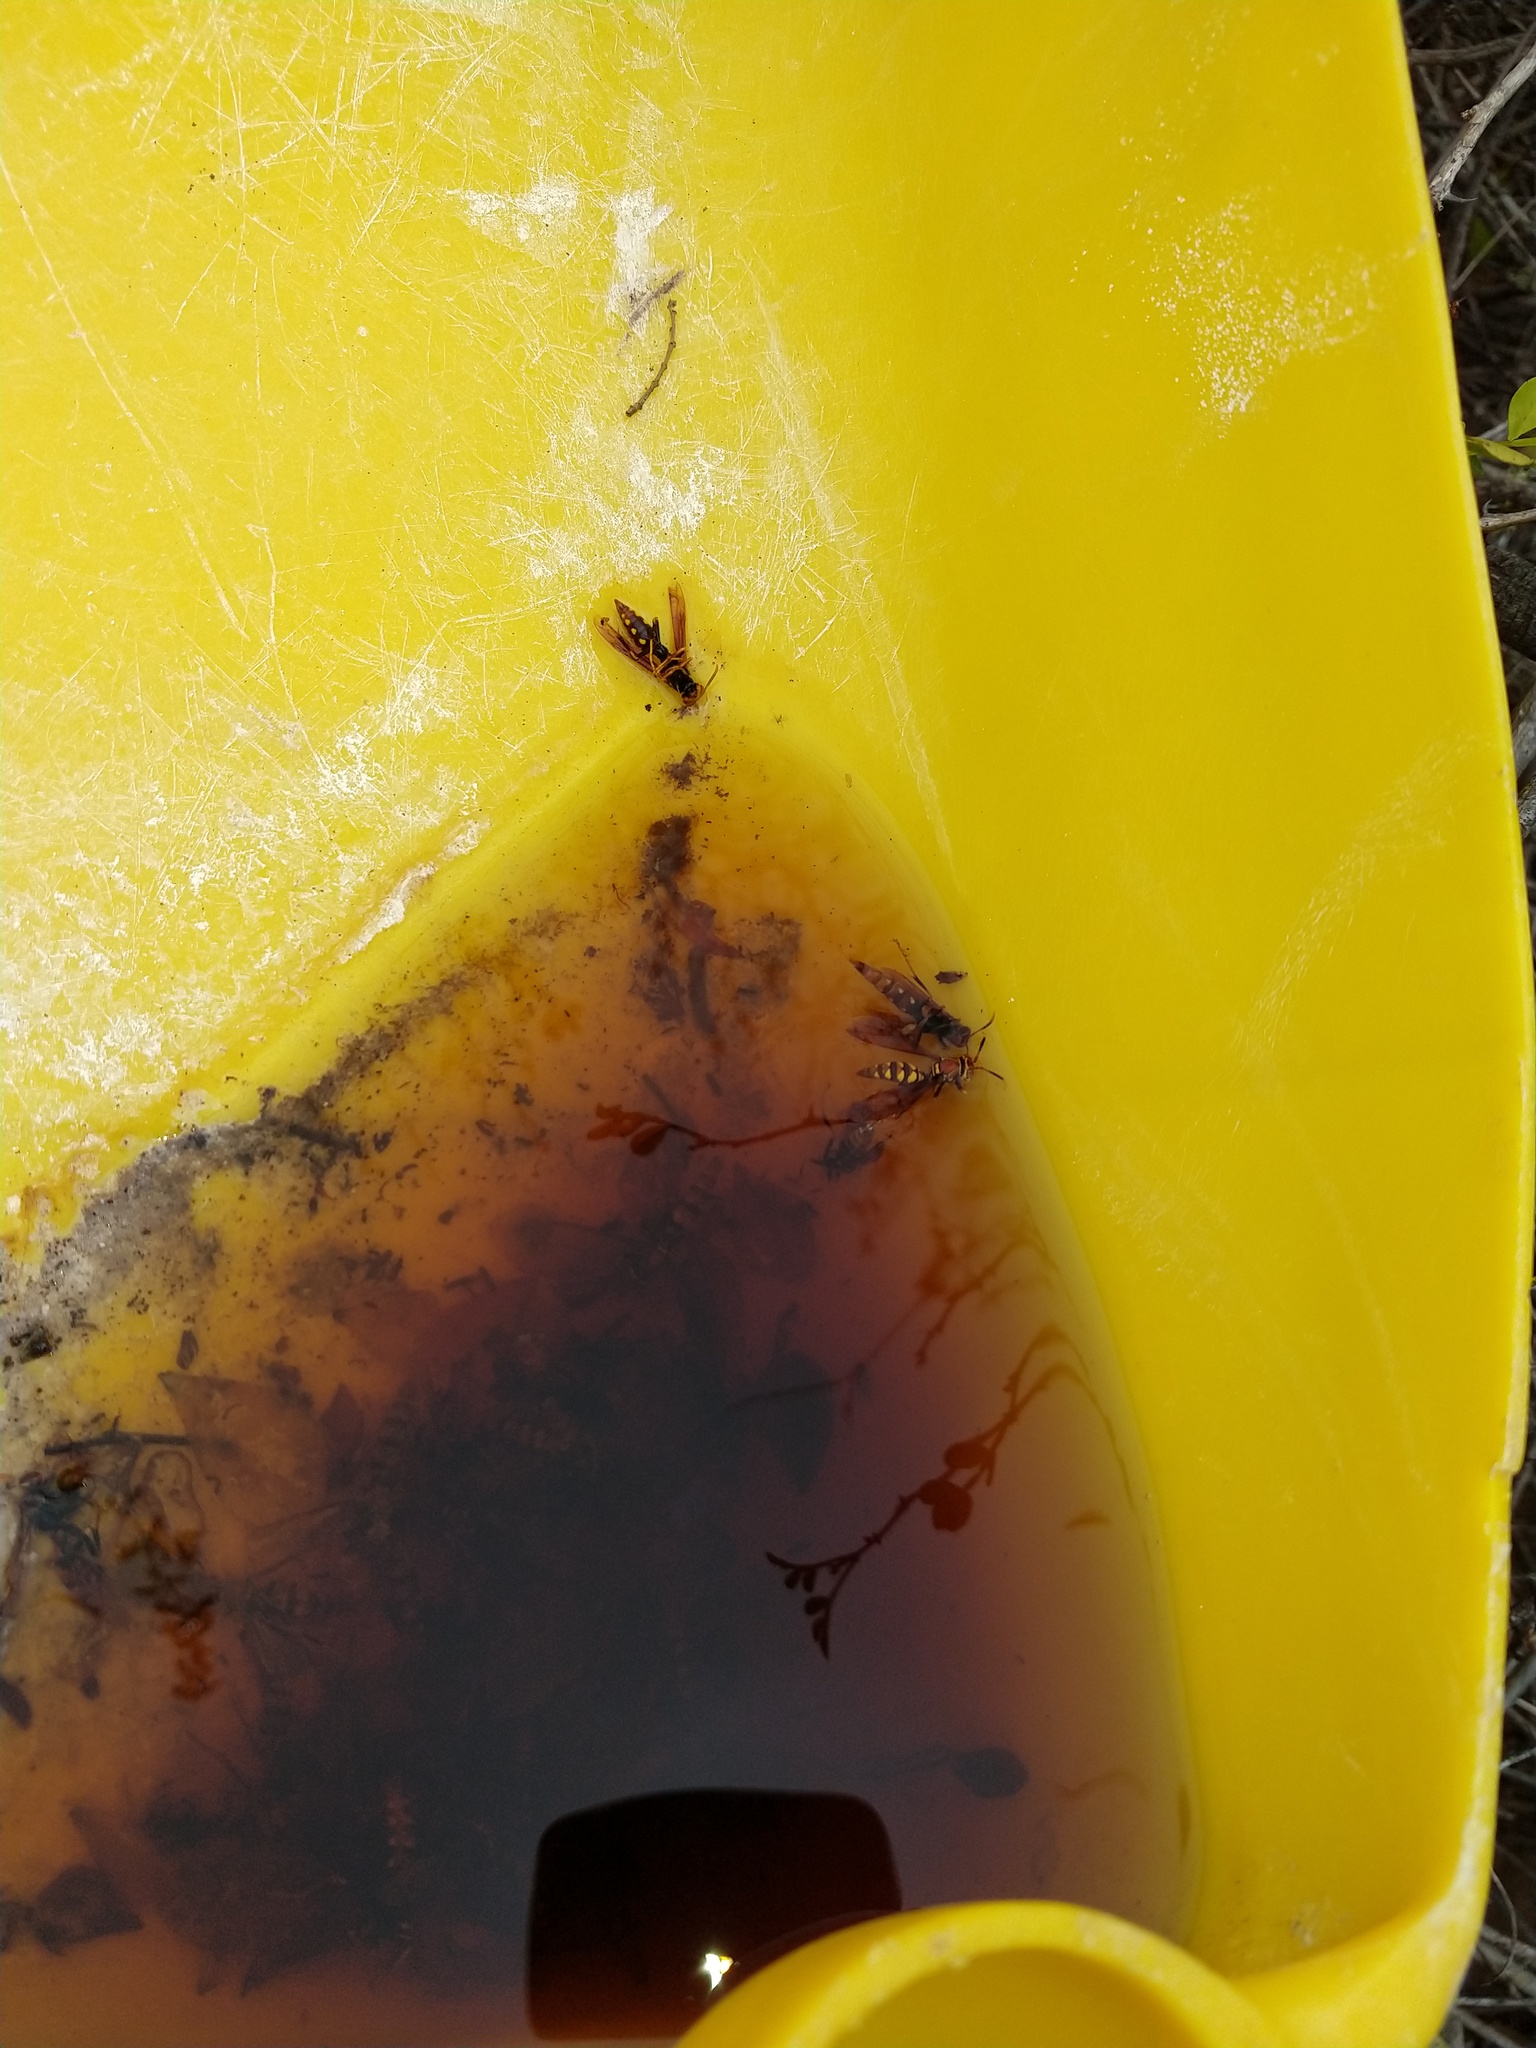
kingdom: Animalia
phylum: Arthropoda
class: Insecta
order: Hymenoptera
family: Eumenidae
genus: Polistes
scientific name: Polistes versicolor
